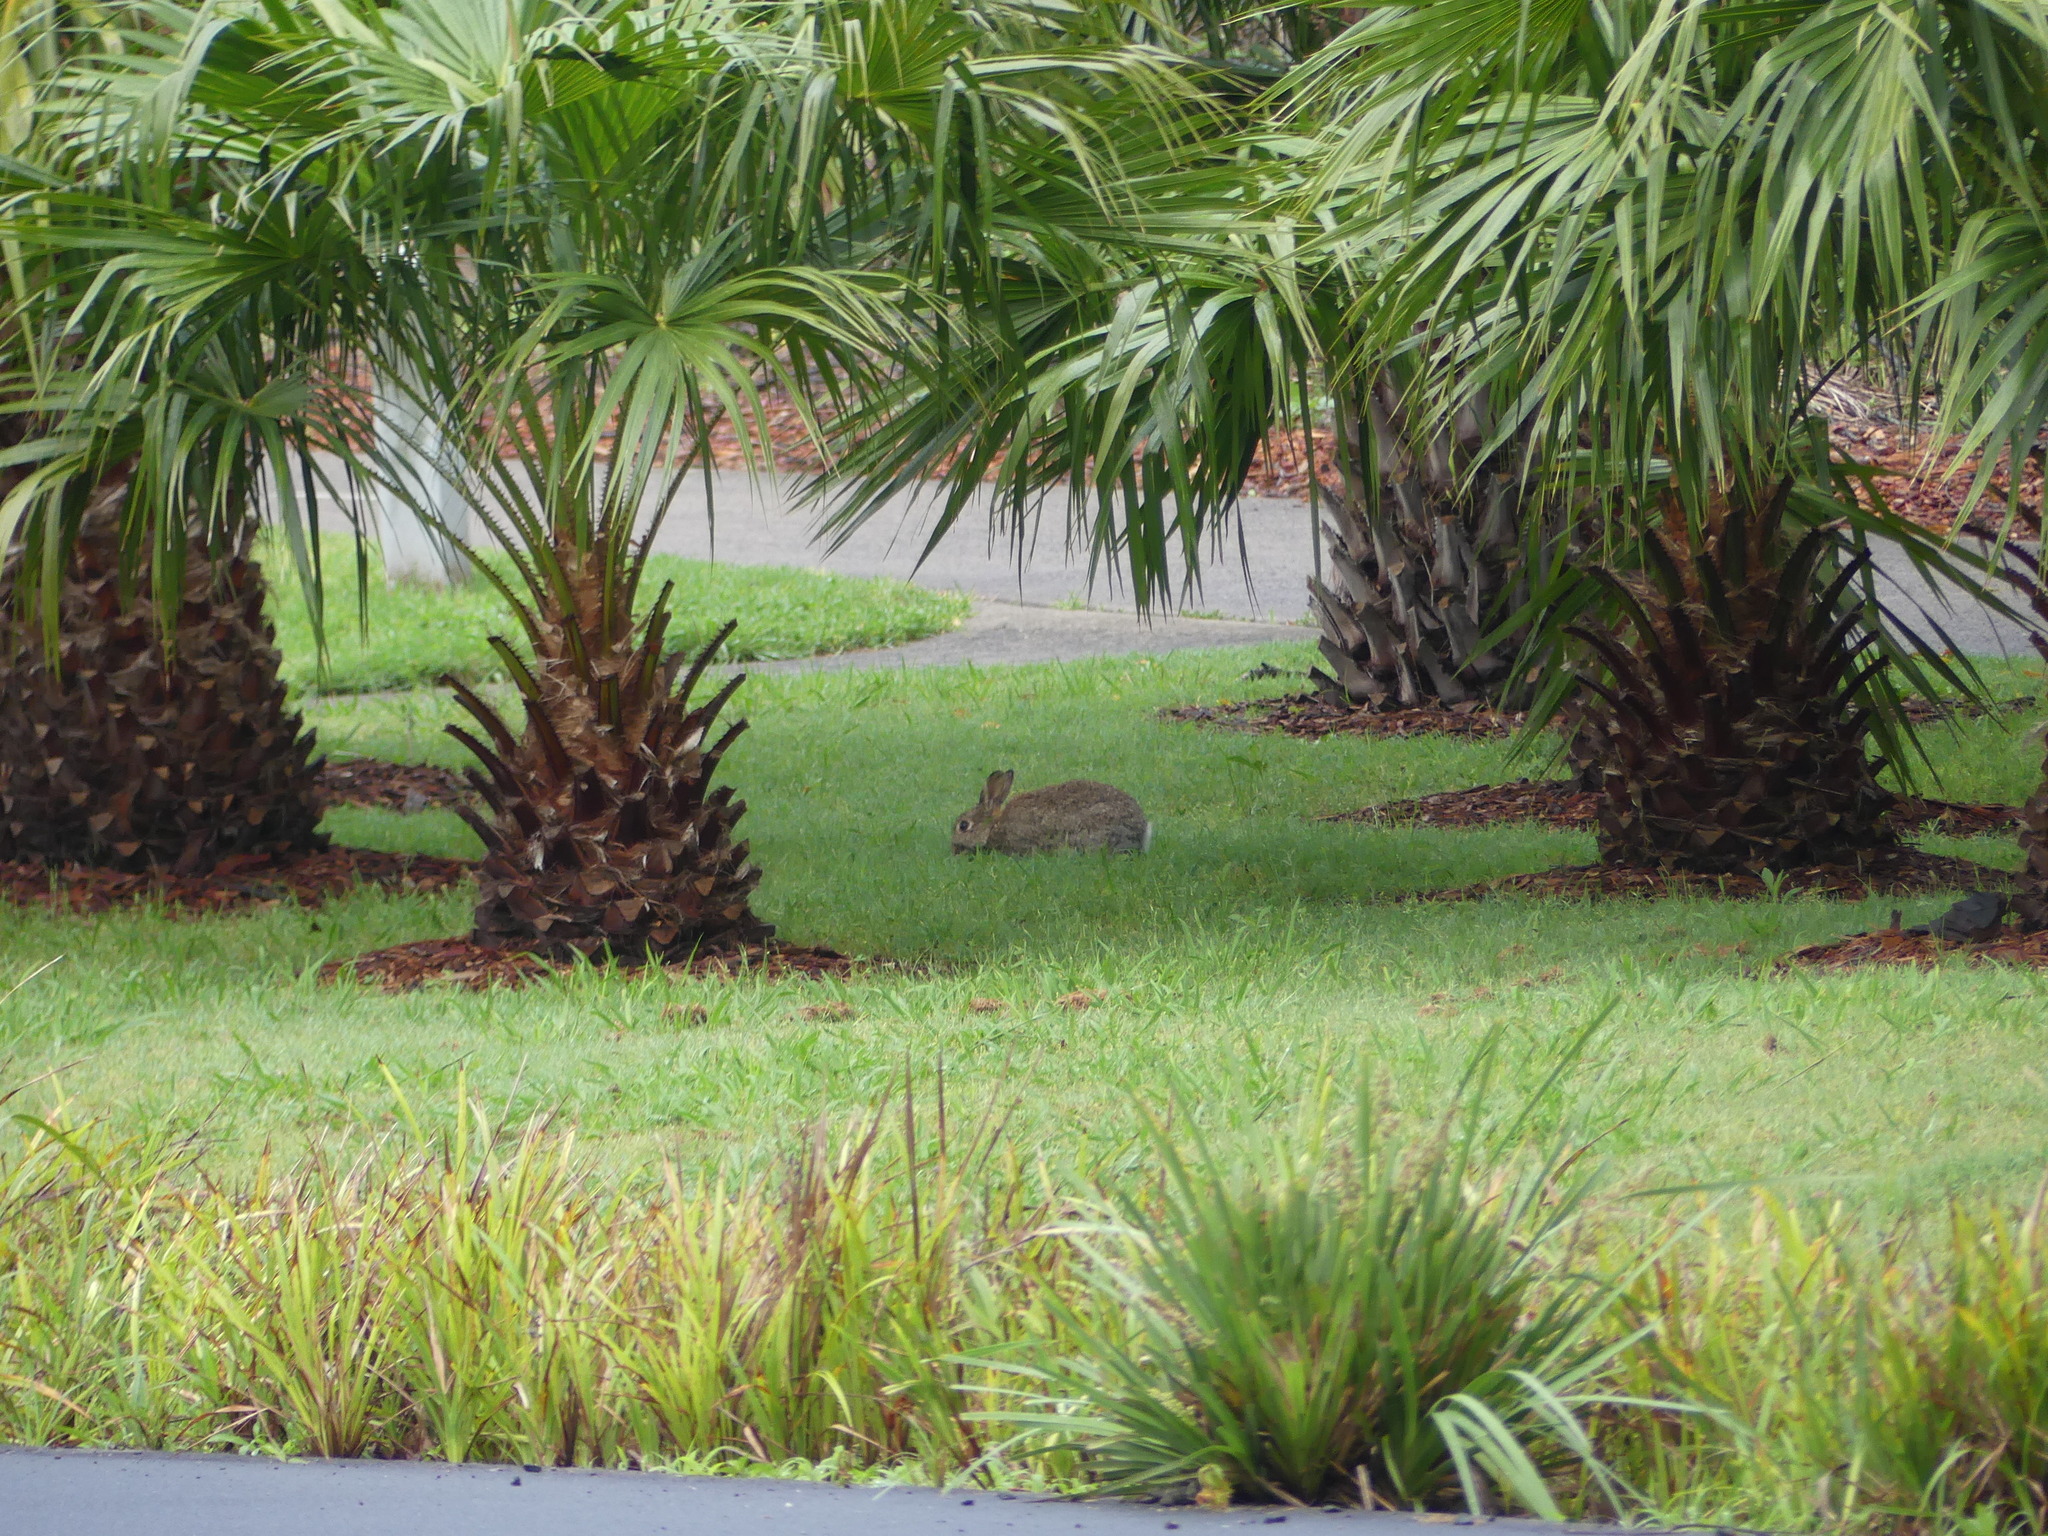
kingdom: Animalia
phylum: Chordata
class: Mammalia
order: Lagomorpha
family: Leporidae
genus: Oryctolagus
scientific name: Oryctolagus cuniculus
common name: European rabbit
